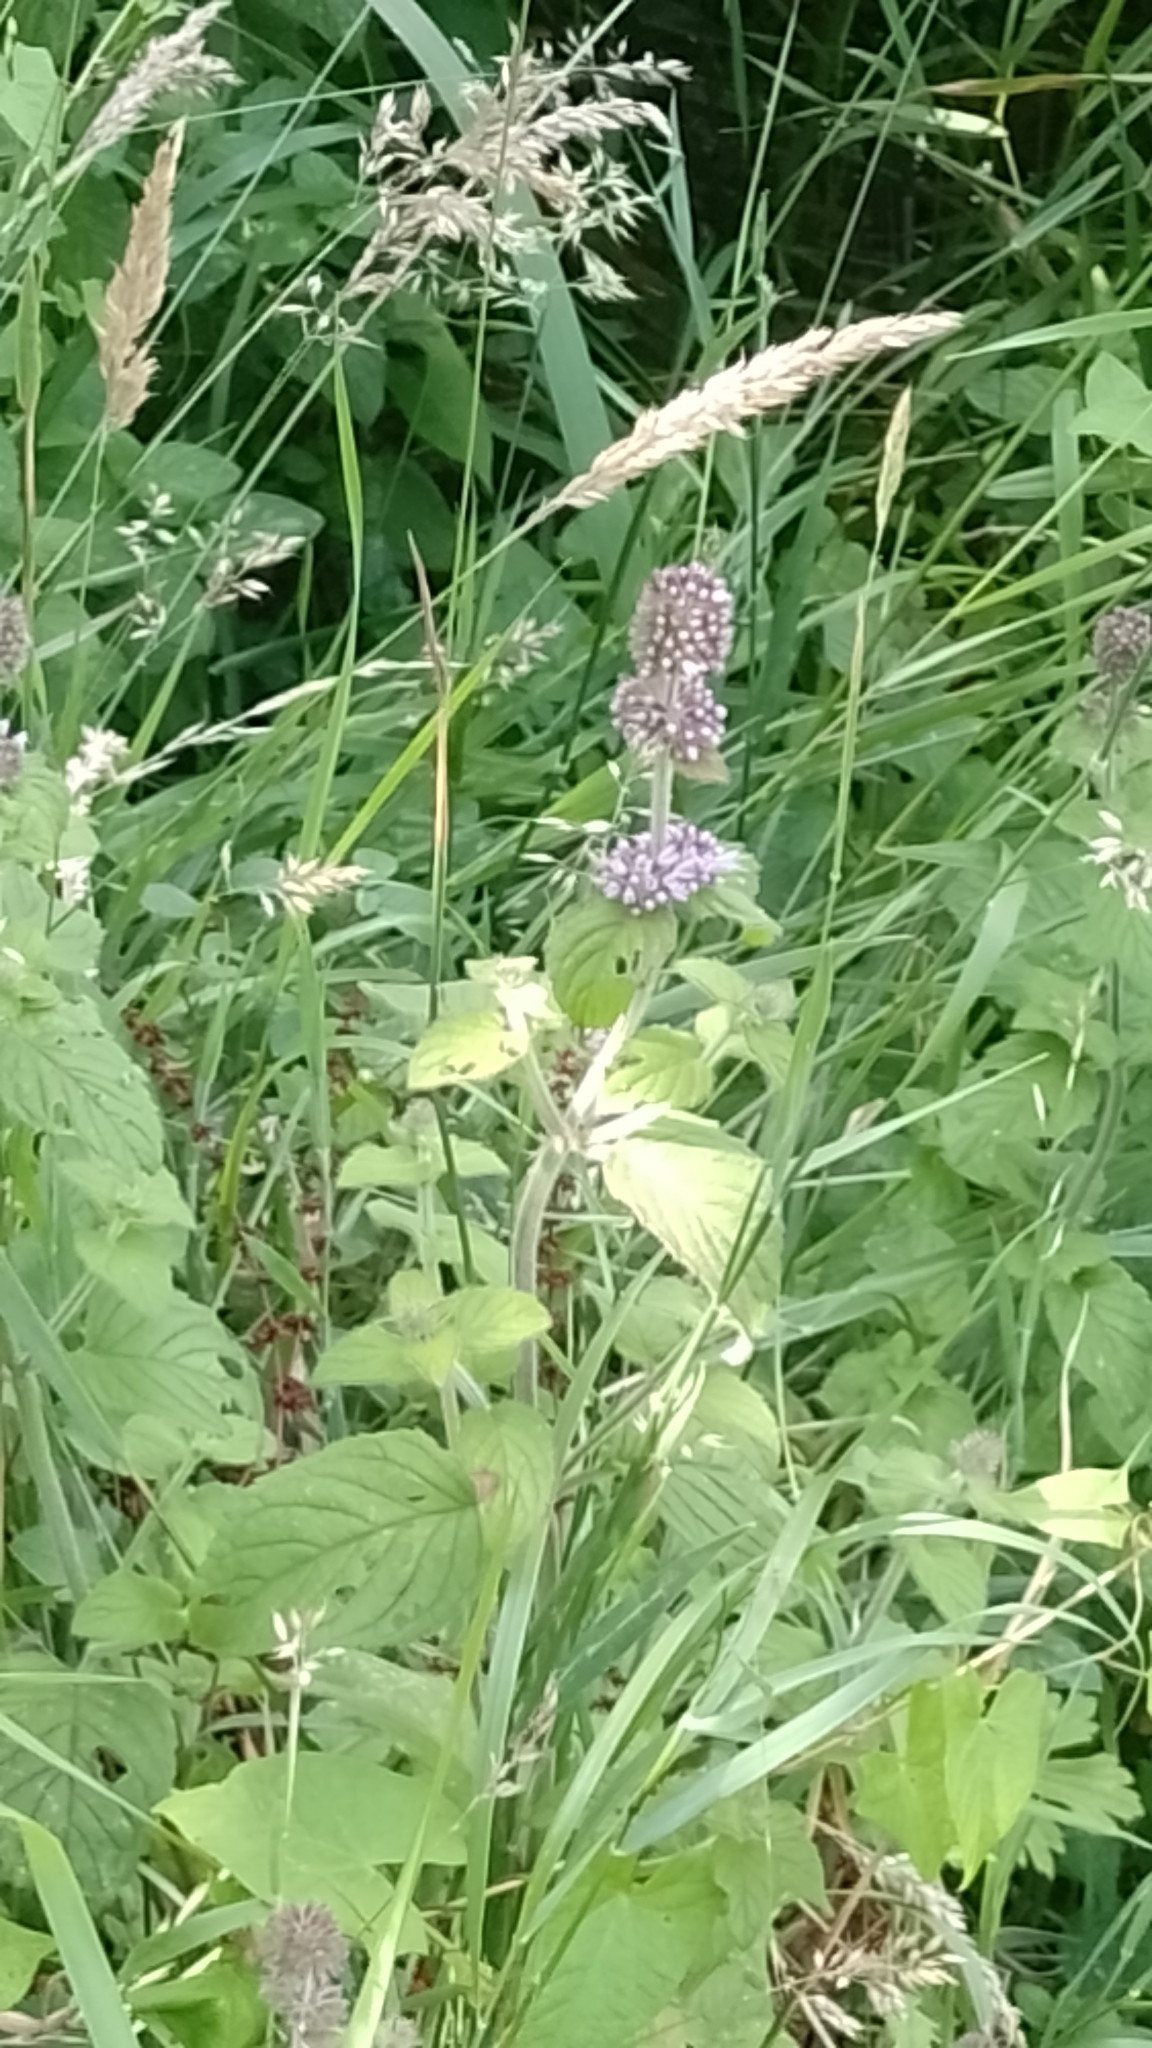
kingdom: Plantae
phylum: Tracheophyta
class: Magnoliopsida
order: Lamiales
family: Lamiaceae
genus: Mentha
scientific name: Mentha aquatica
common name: Water mint
